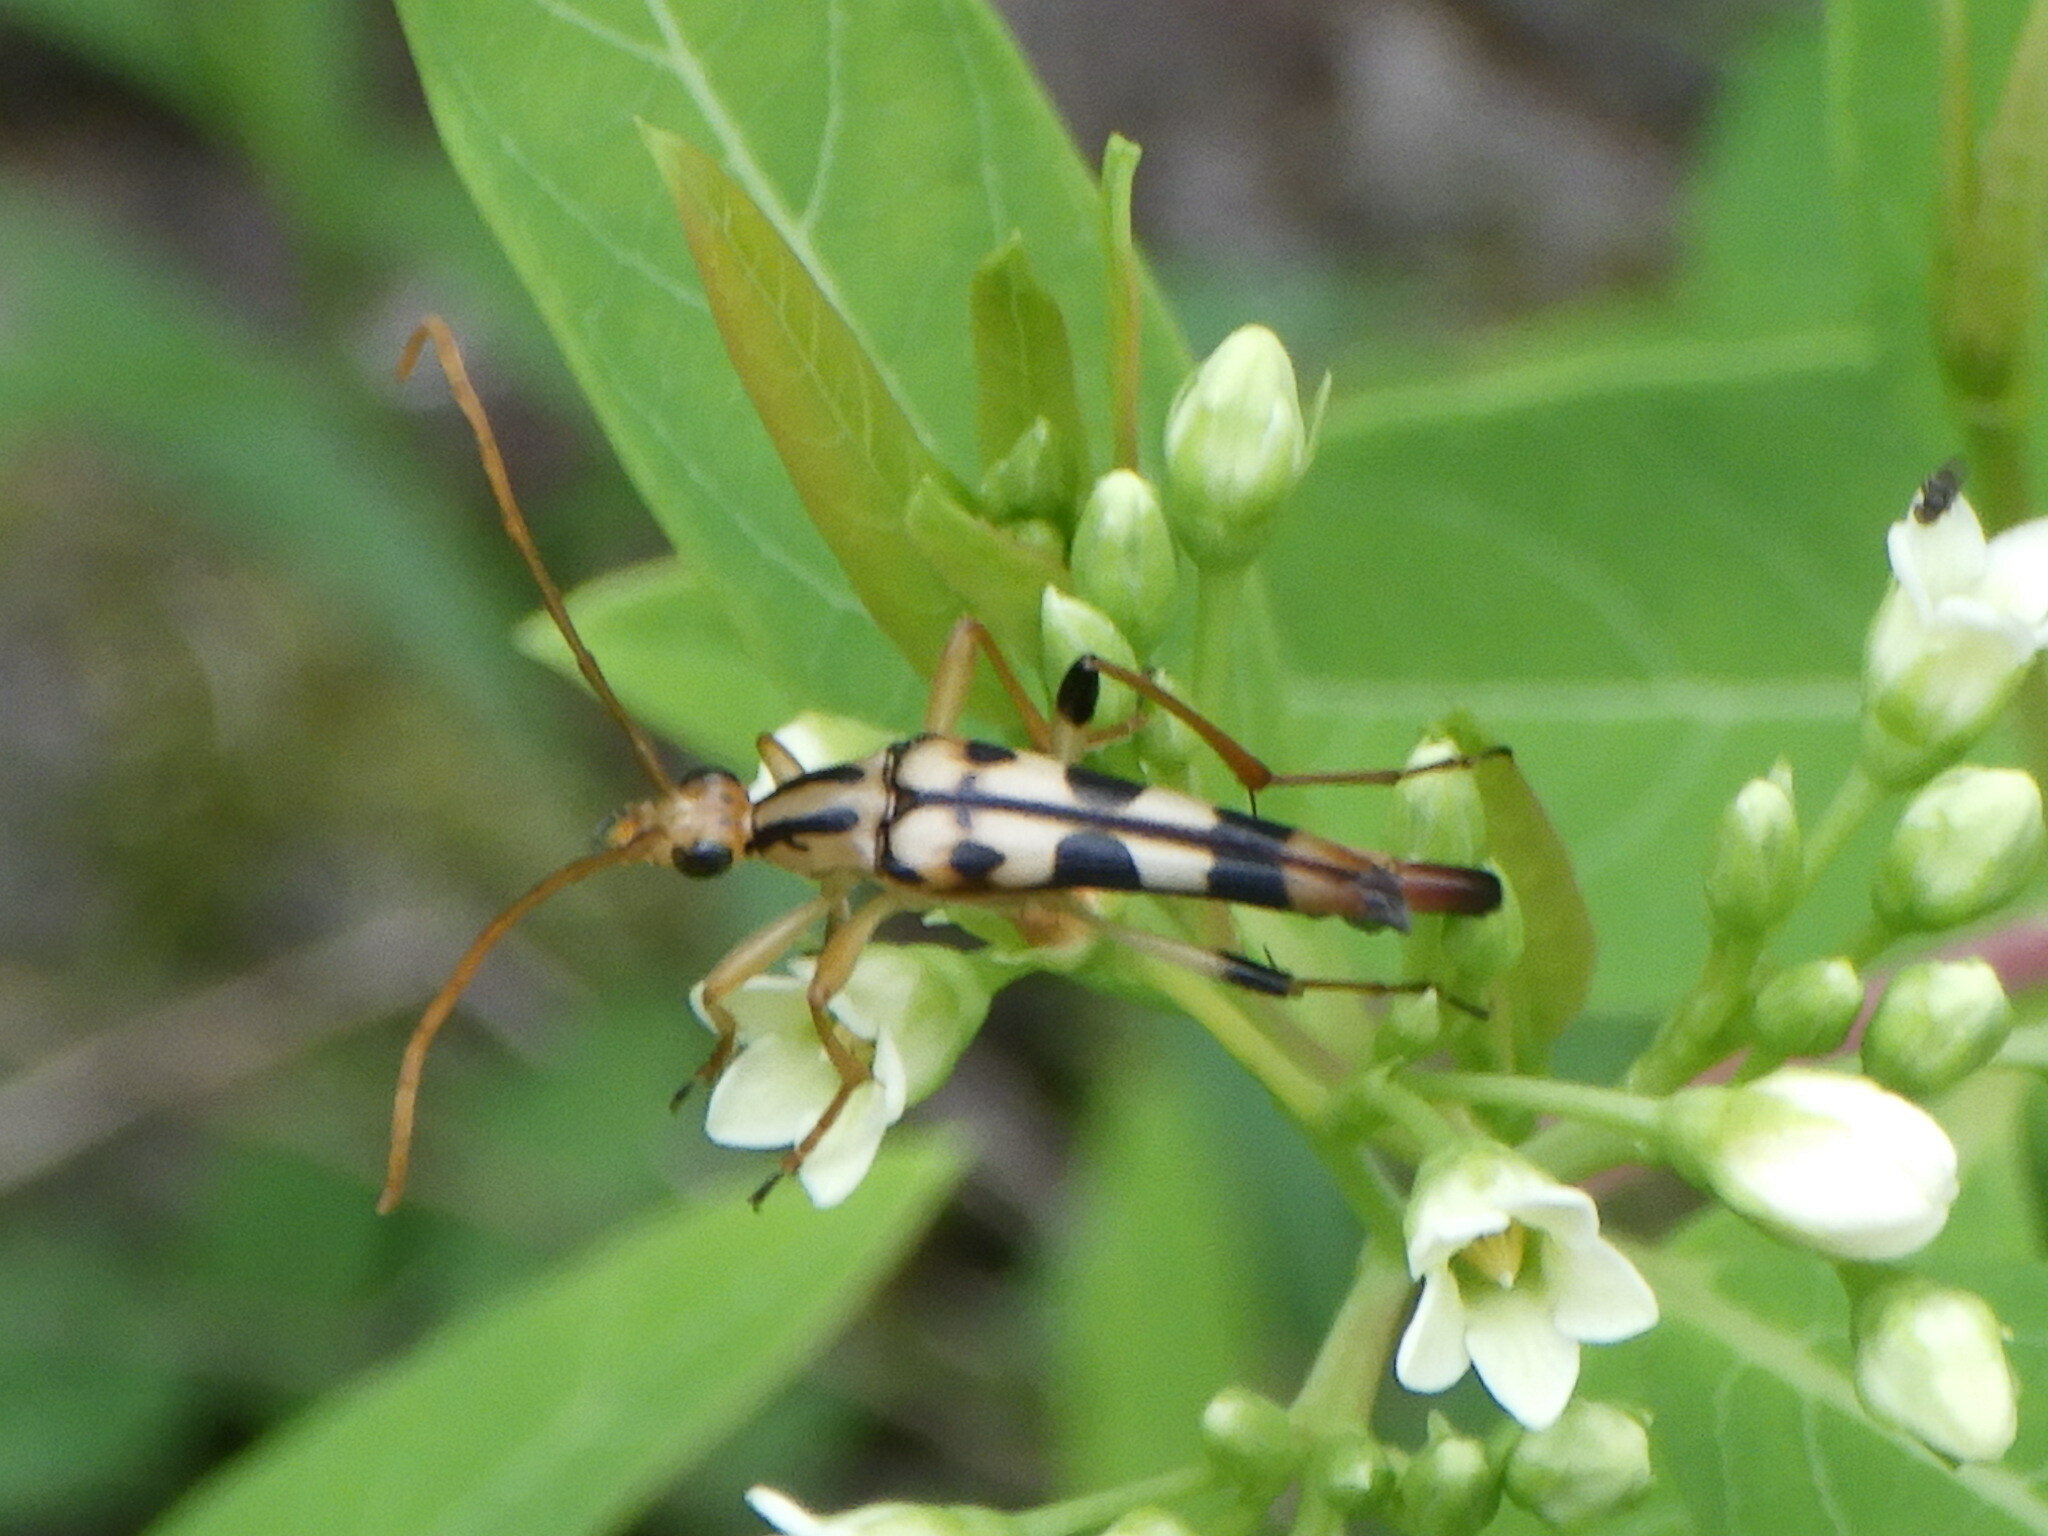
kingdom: Animalia
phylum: Arthropoda
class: Insecta
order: Coleoptera
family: Cerambycidae
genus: Strangalia
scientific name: Strangalia luteicornis
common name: Yellow-horned flower longhorn beetle
